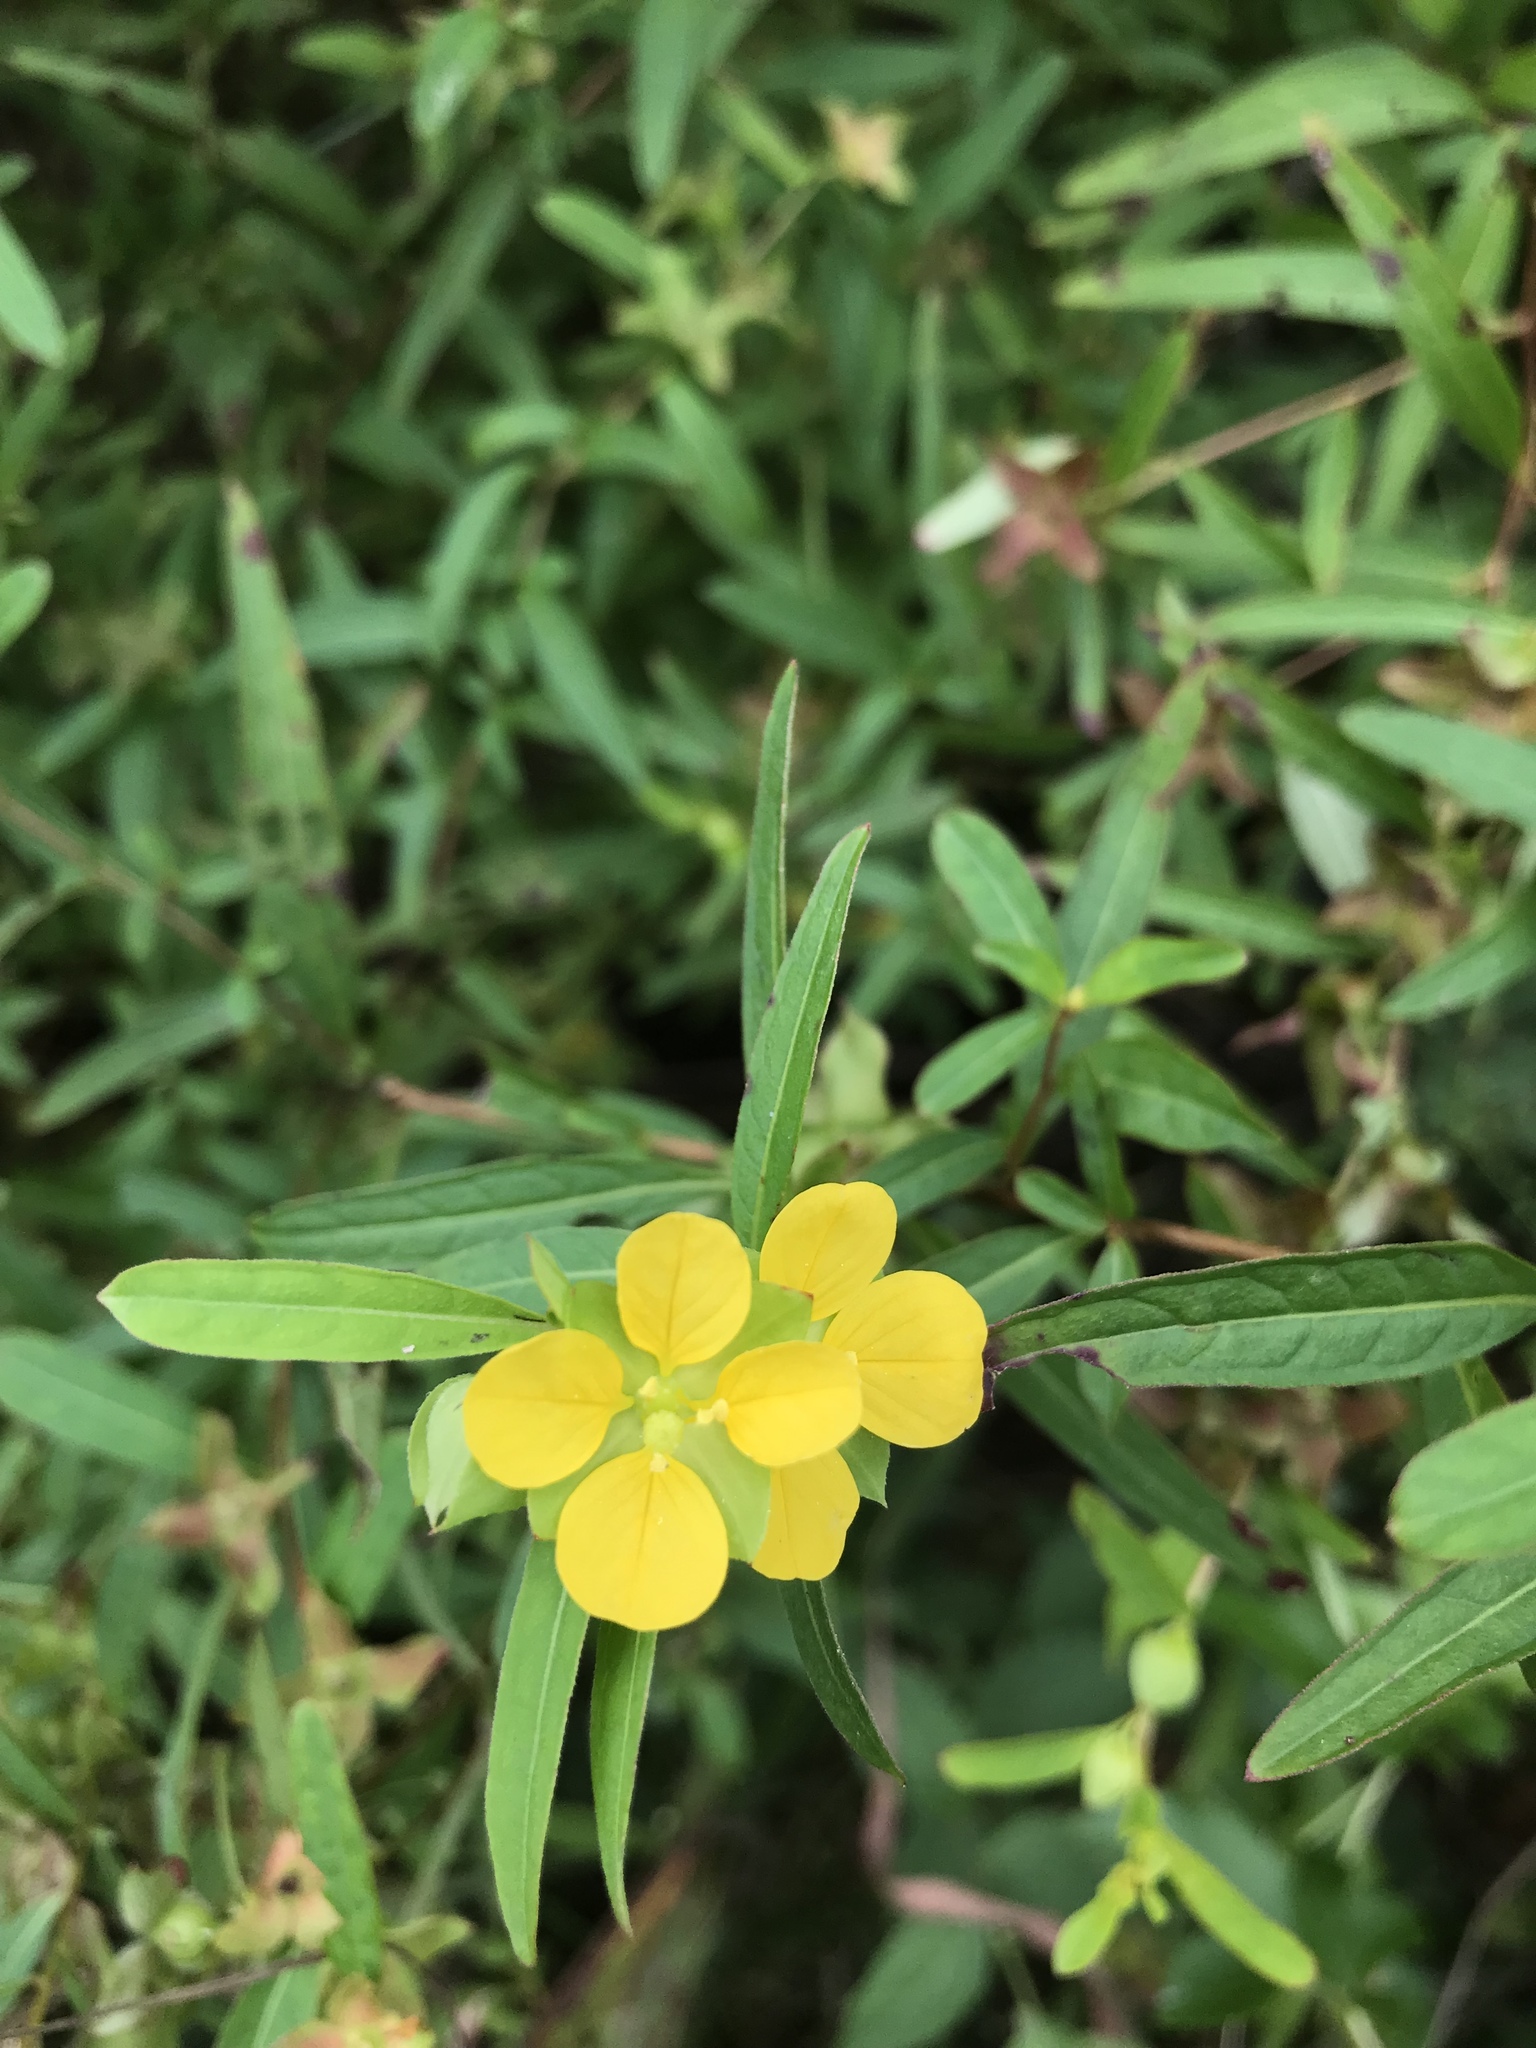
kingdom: Plantae
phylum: Tracheophyta
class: Magnoliopsida
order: Myrtales
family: Onagraceae
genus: Ludwigia
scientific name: Ludwigia alternifolia
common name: Rattlebox
